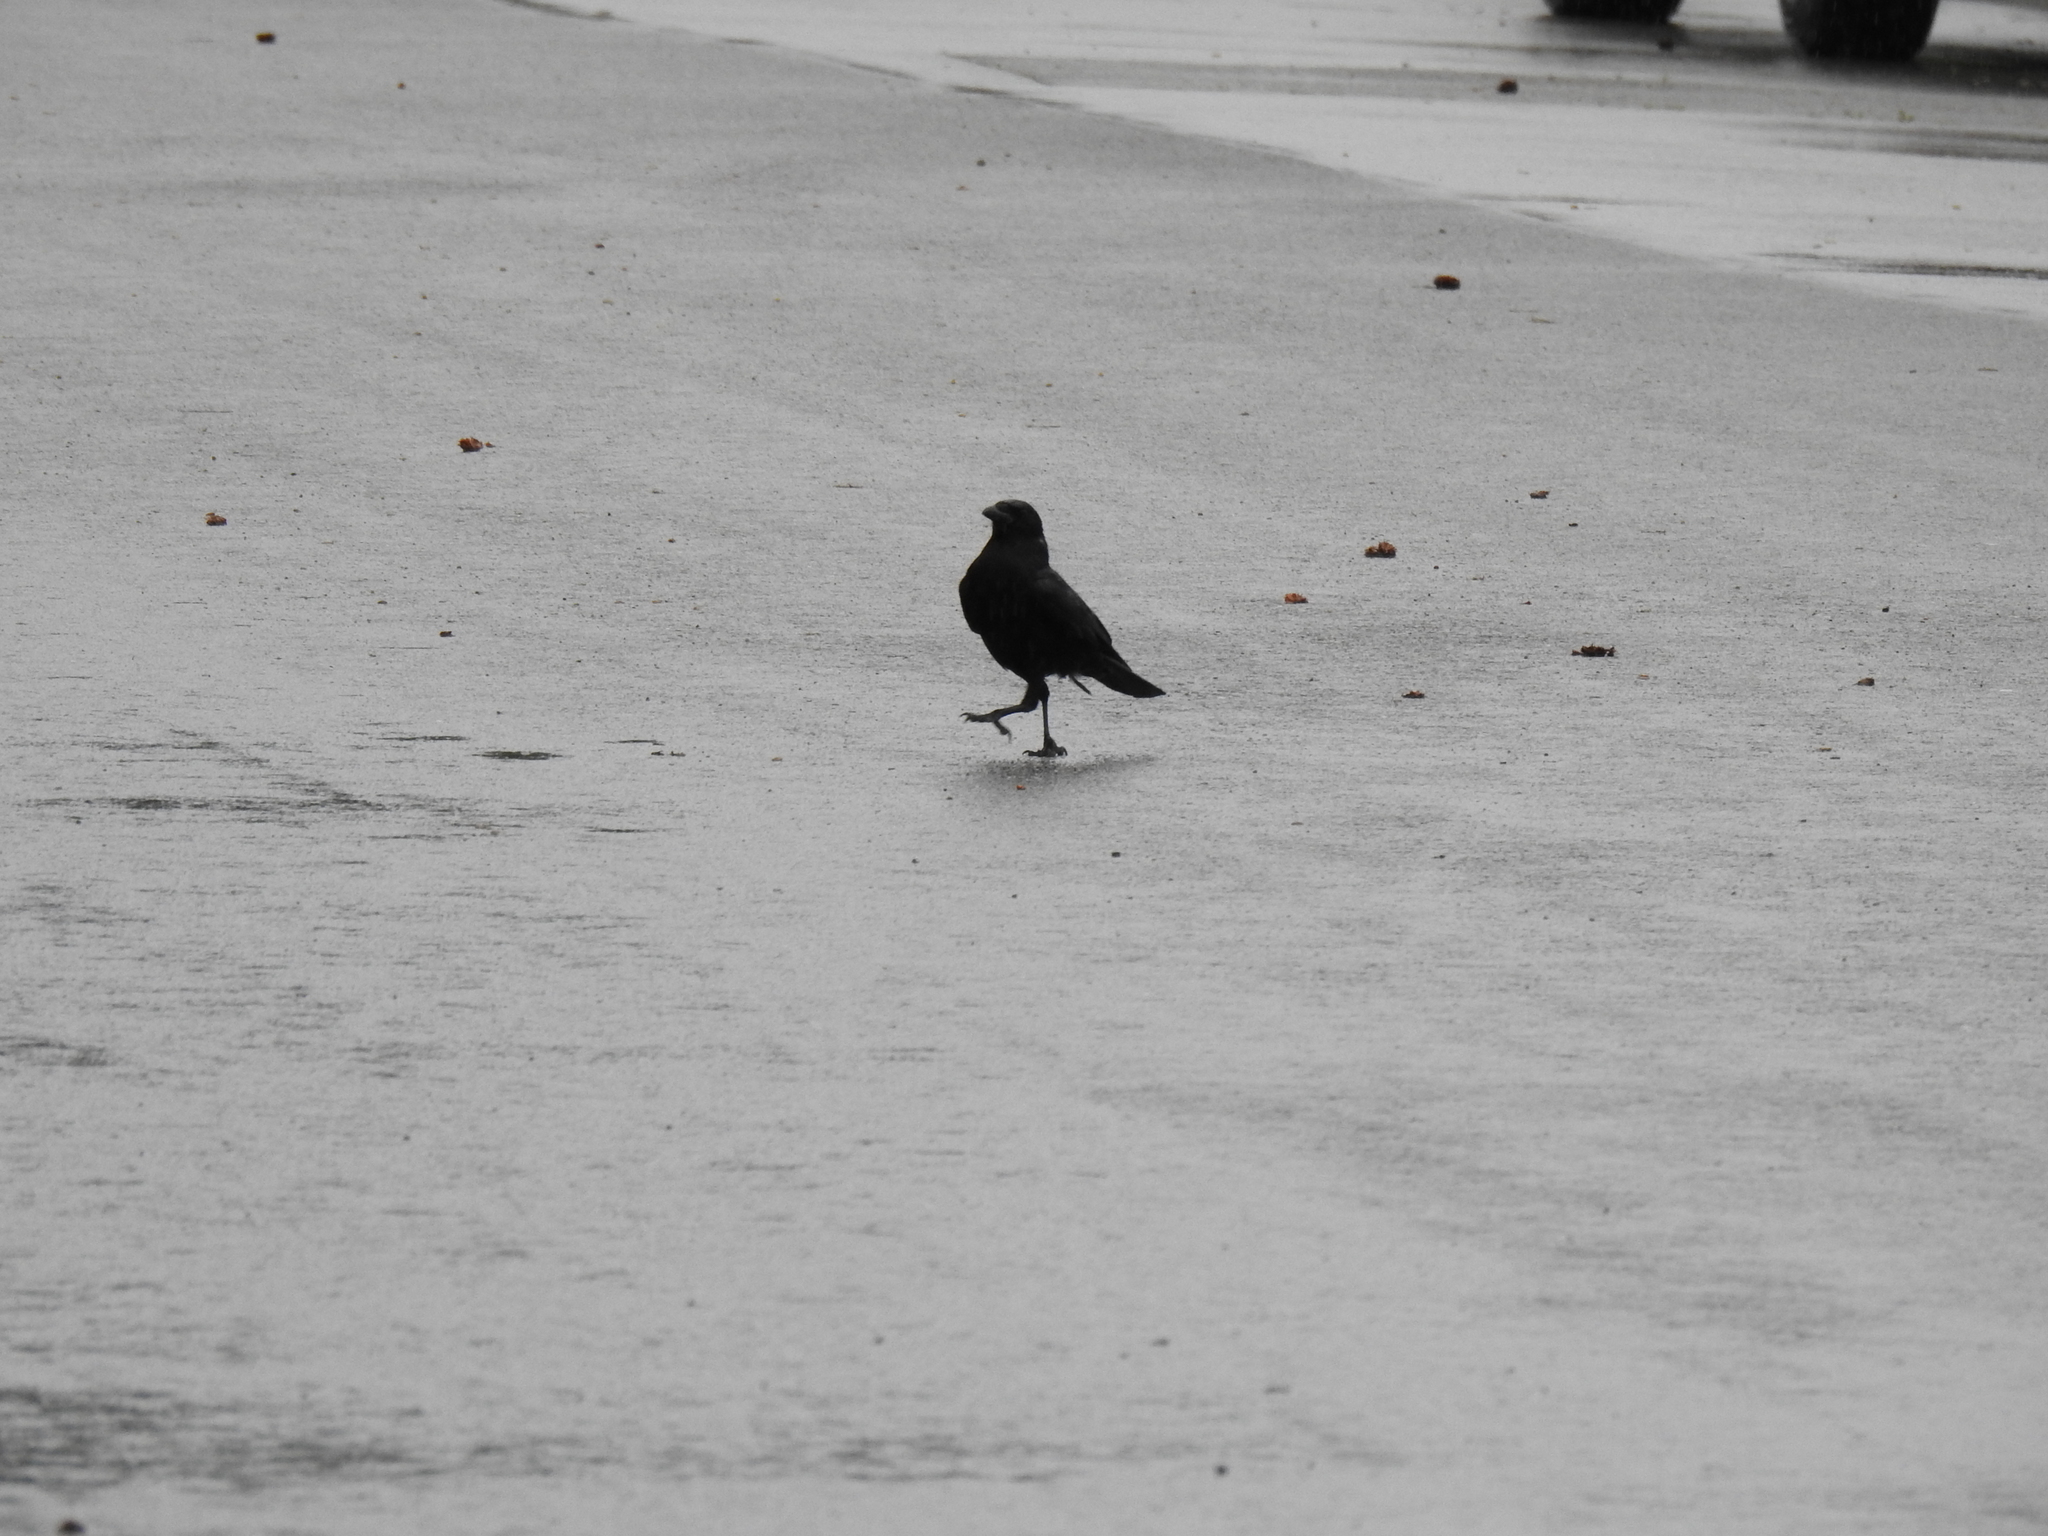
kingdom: Animalia
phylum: Chordata
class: Aves
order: Passeriformes
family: Corvidae
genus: Corvus
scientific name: Corvus brachyrhynchos
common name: American crow
